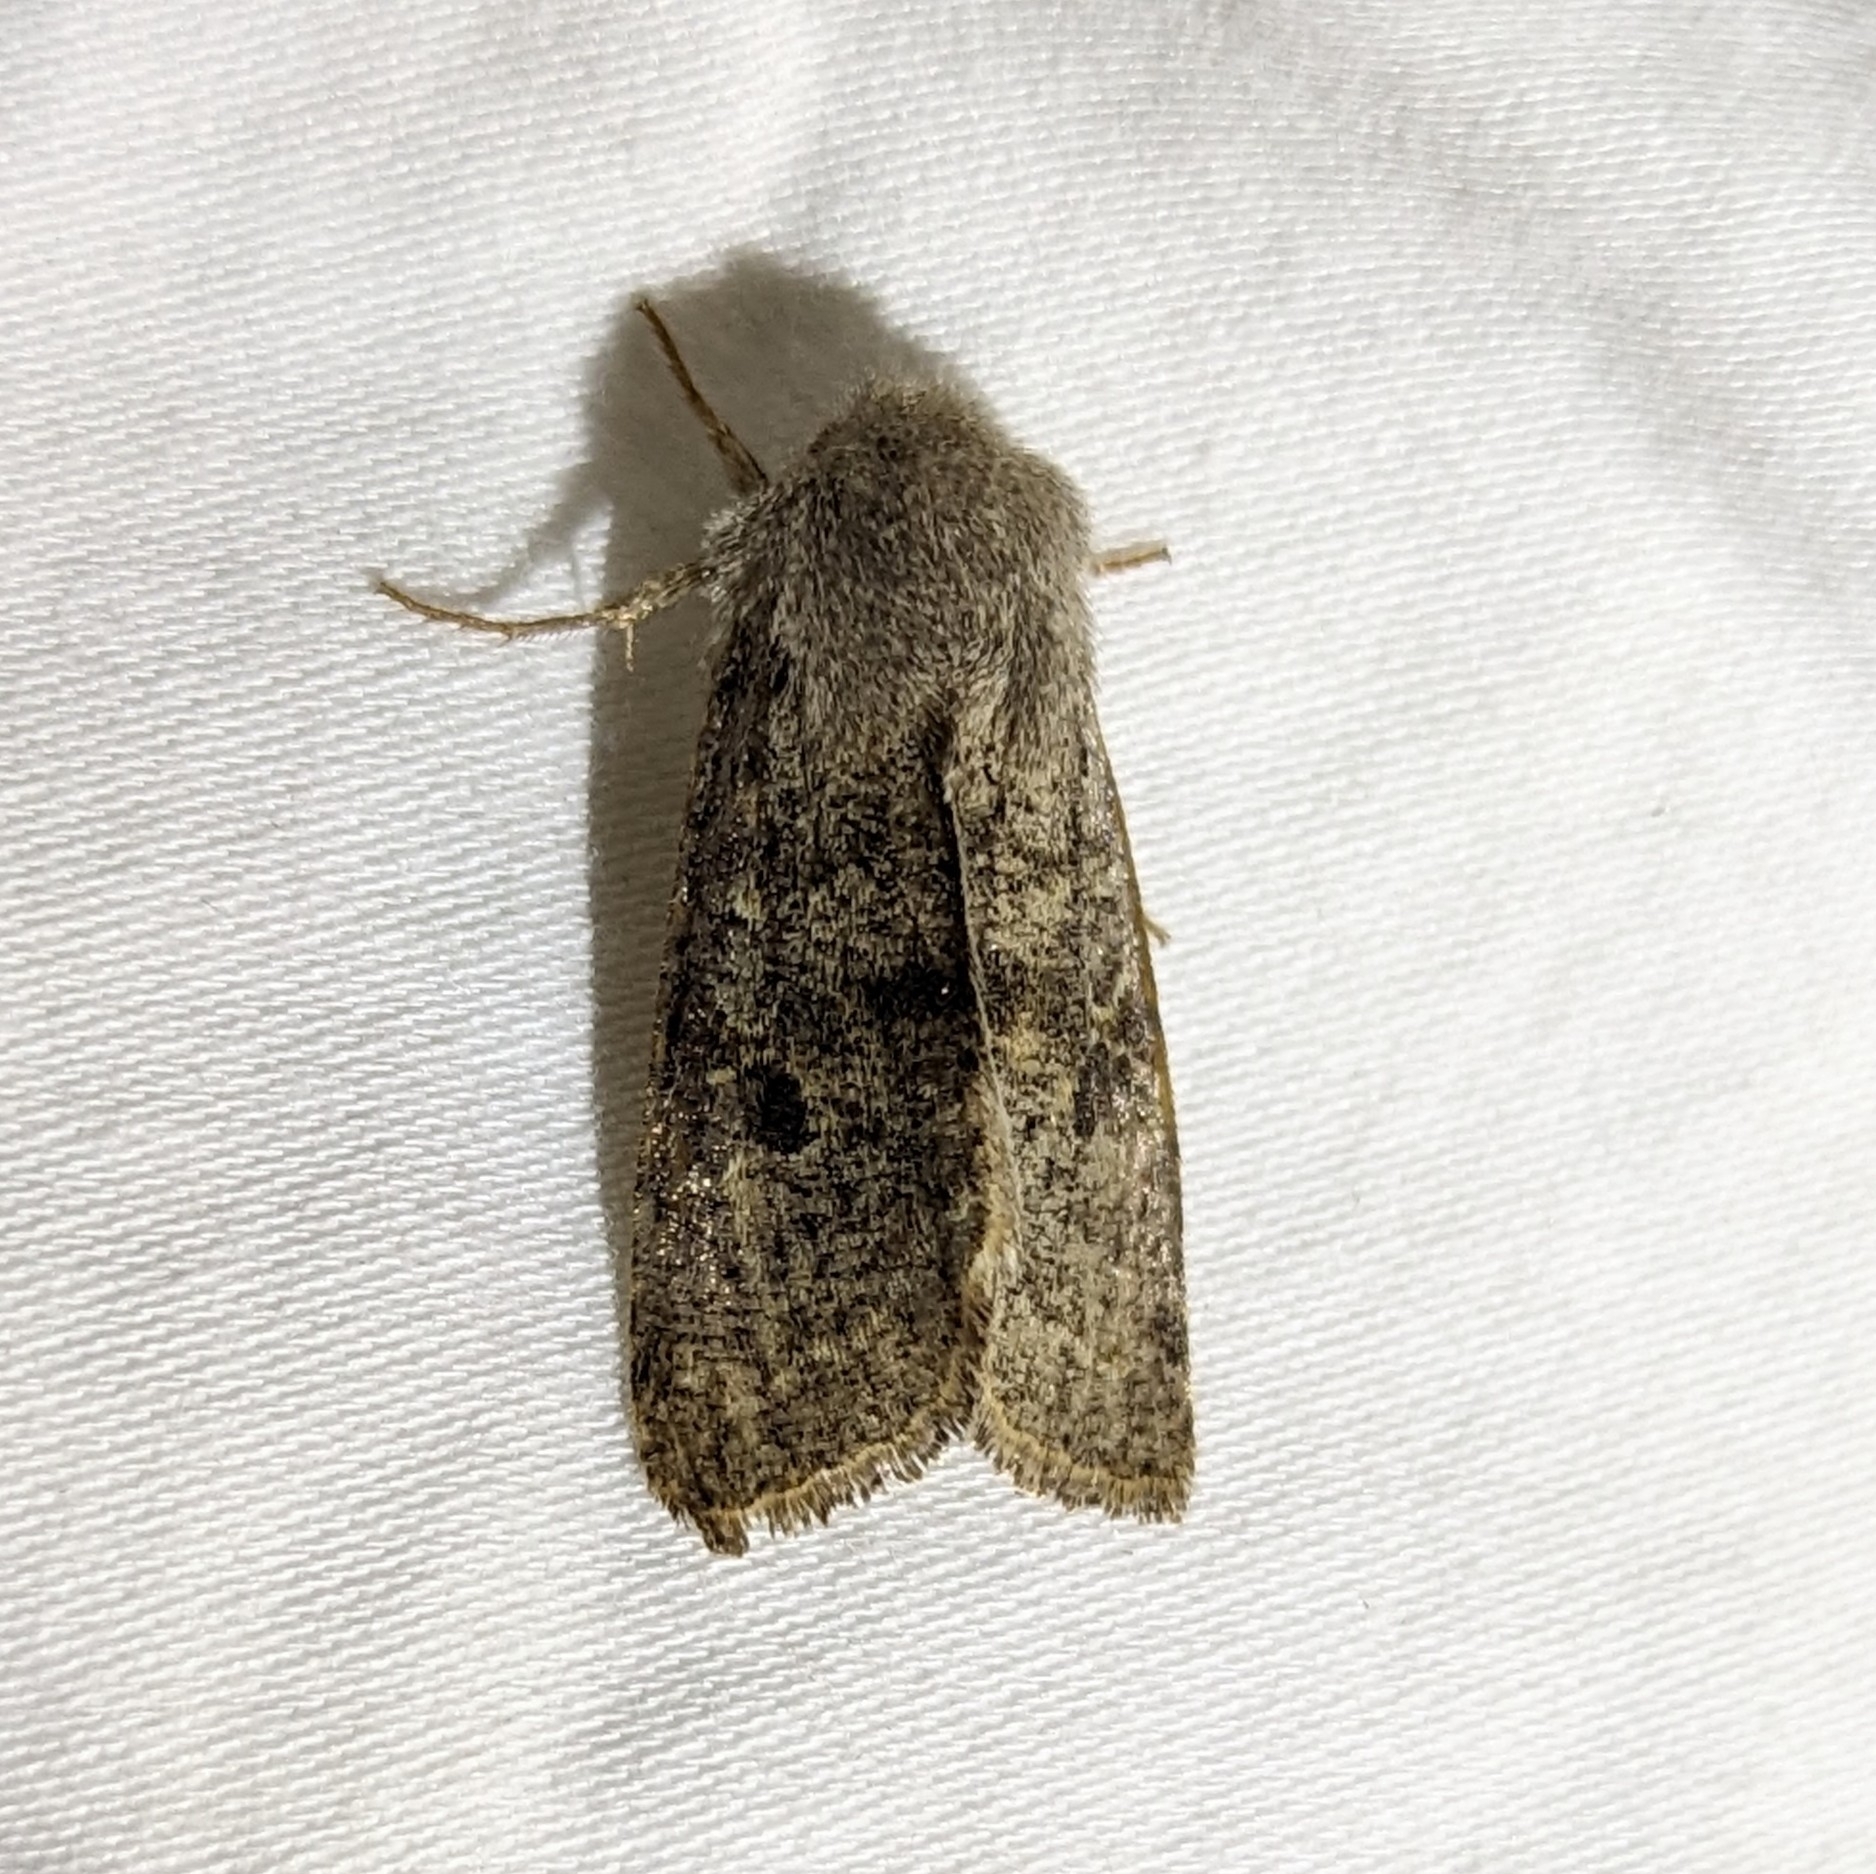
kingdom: Animalia
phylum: Arthropoda
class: Insecta
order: Lepidoptera
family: Noctuidae
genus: Orthosia
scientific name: Orthosia hibisci
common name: Green fruitworm
